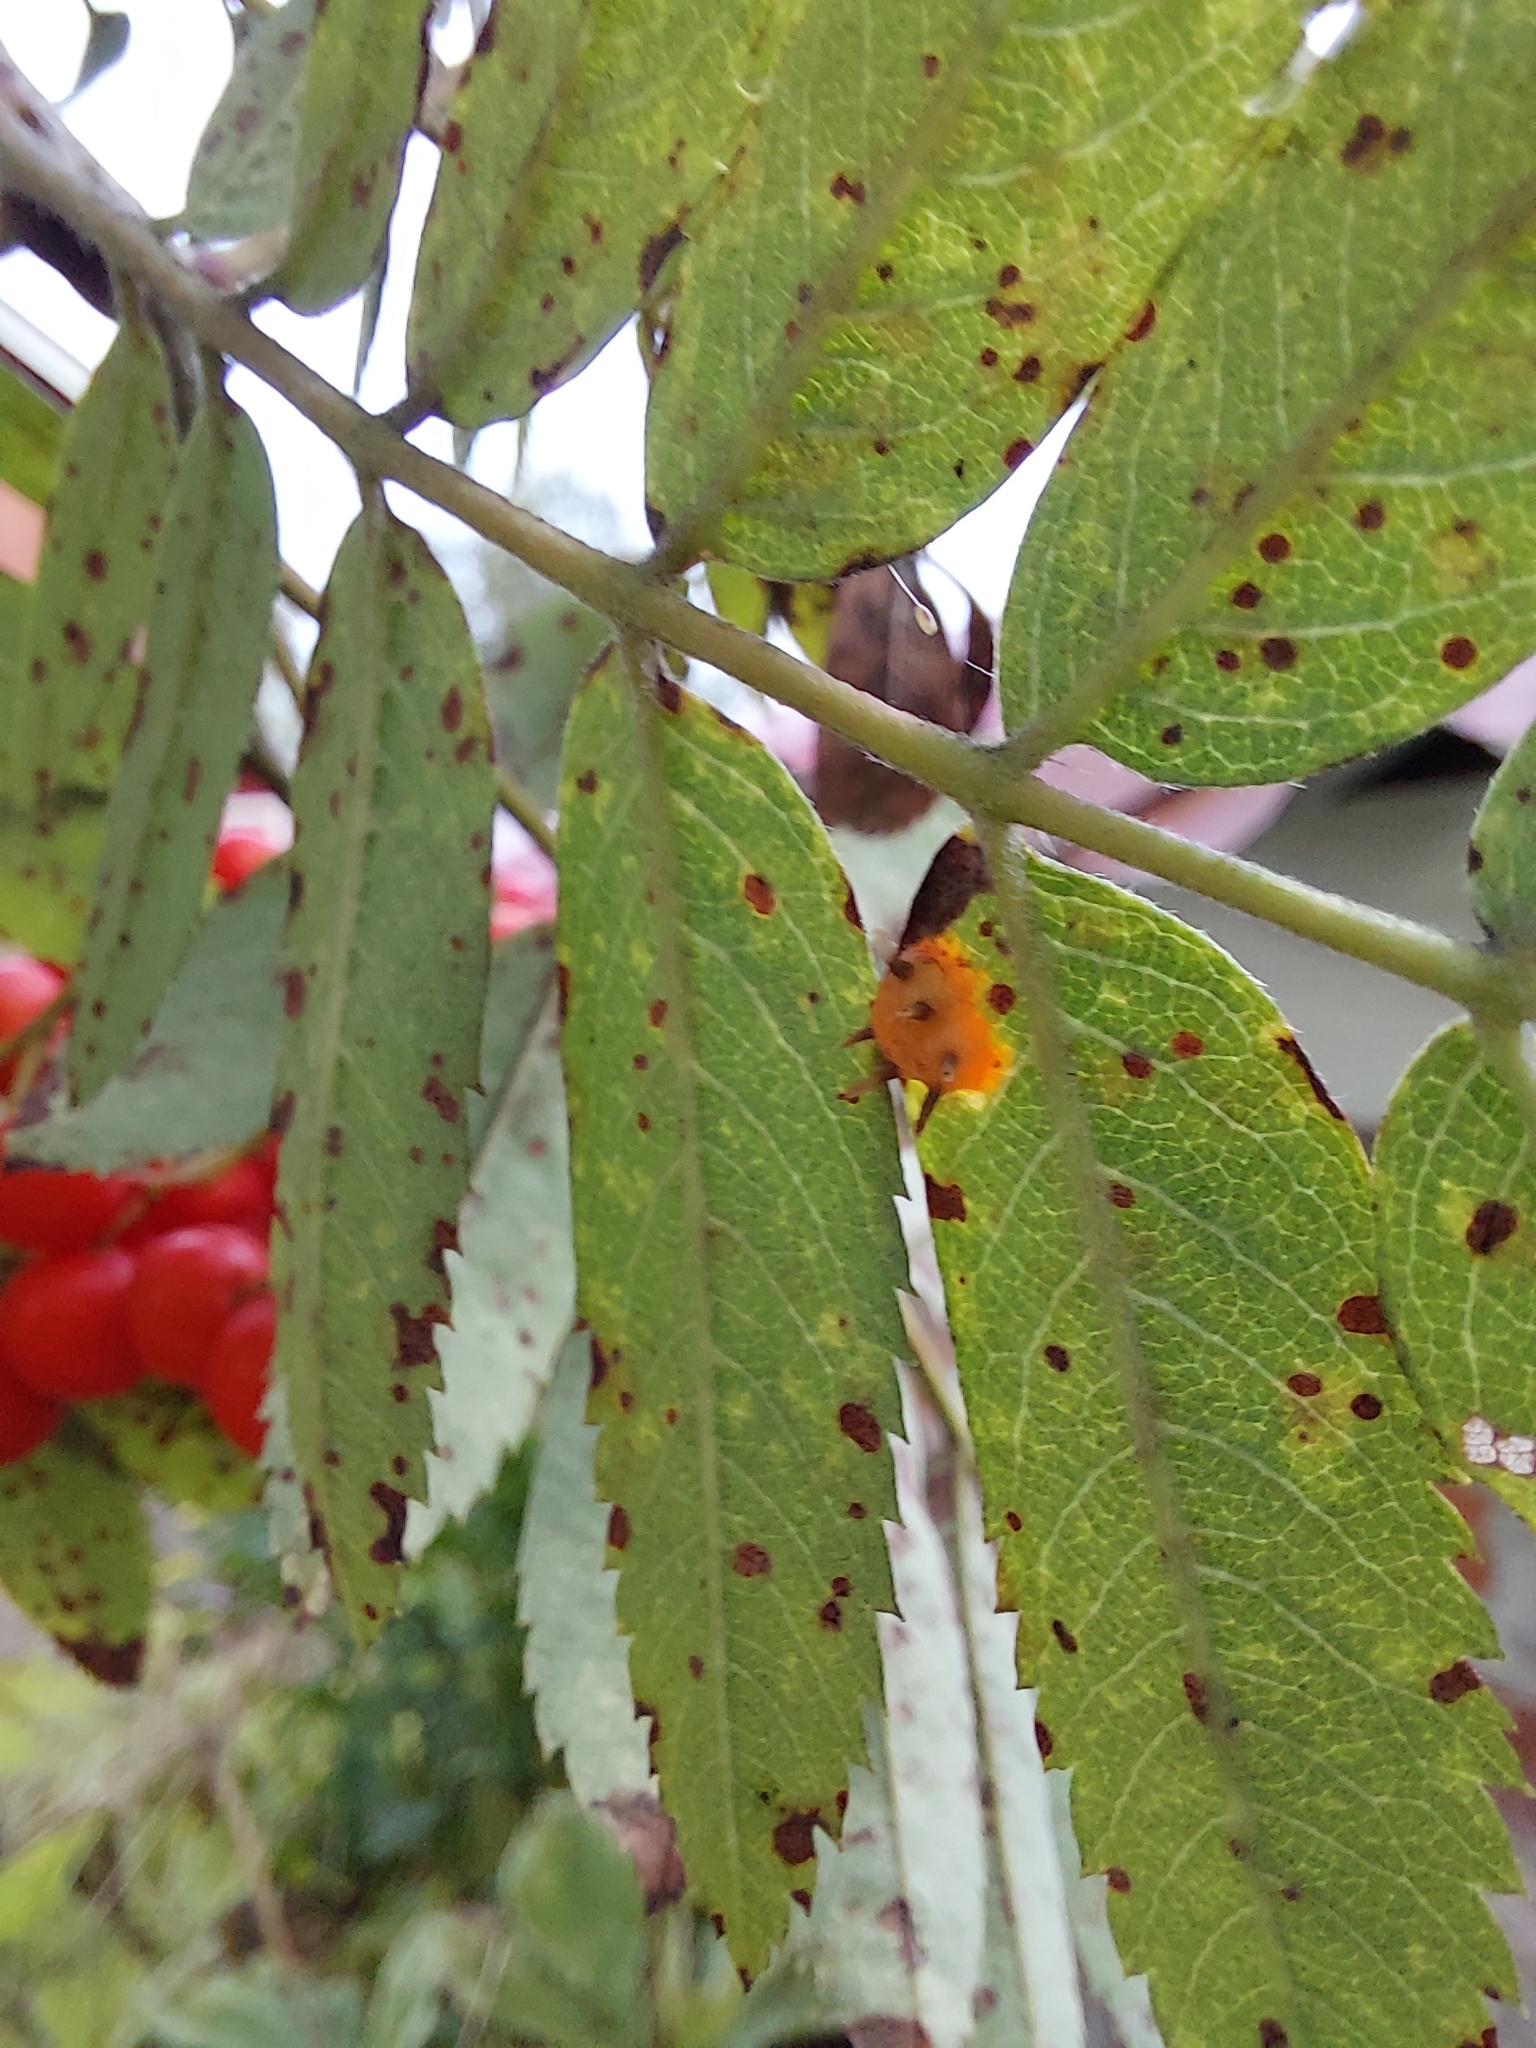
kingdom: Fungi
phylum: Basidiomycota
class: Pucciniomycetes
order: Pucciniales
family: Gymnosporangiaceae
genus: Gymnosporangium
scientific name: Gymnosporangium cornutum
